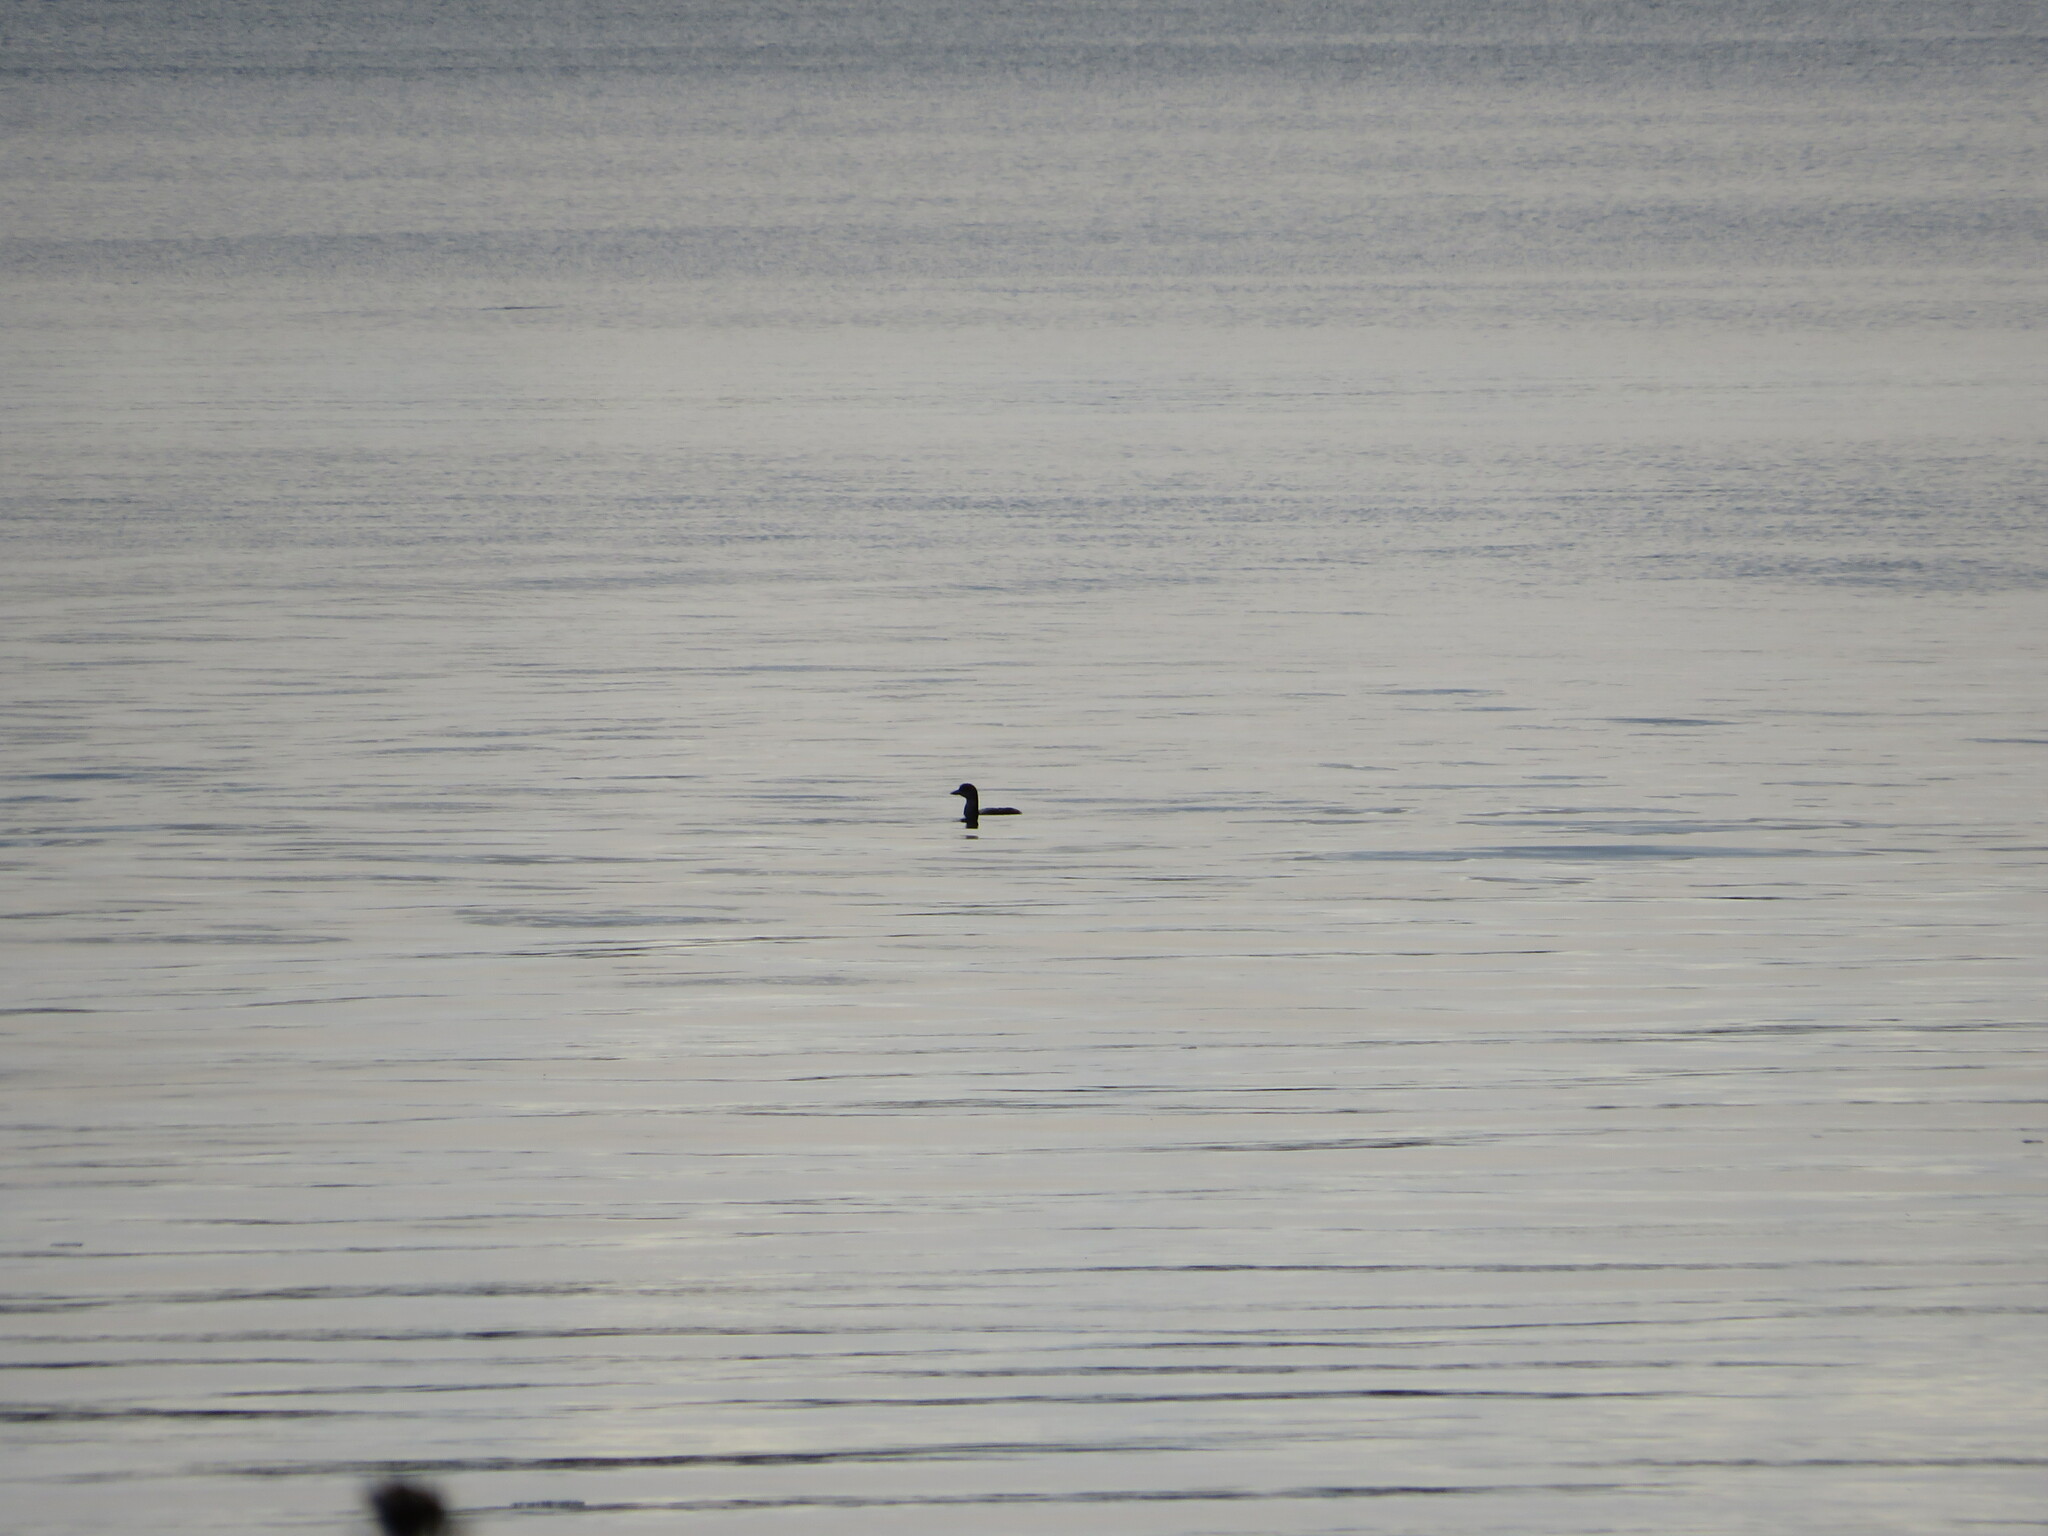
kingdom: Animalia
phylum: Chordata
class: Aves
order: Gaviiformes
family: Gaviidae
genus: Gavia
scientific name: Gavia immer
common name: Common loon
